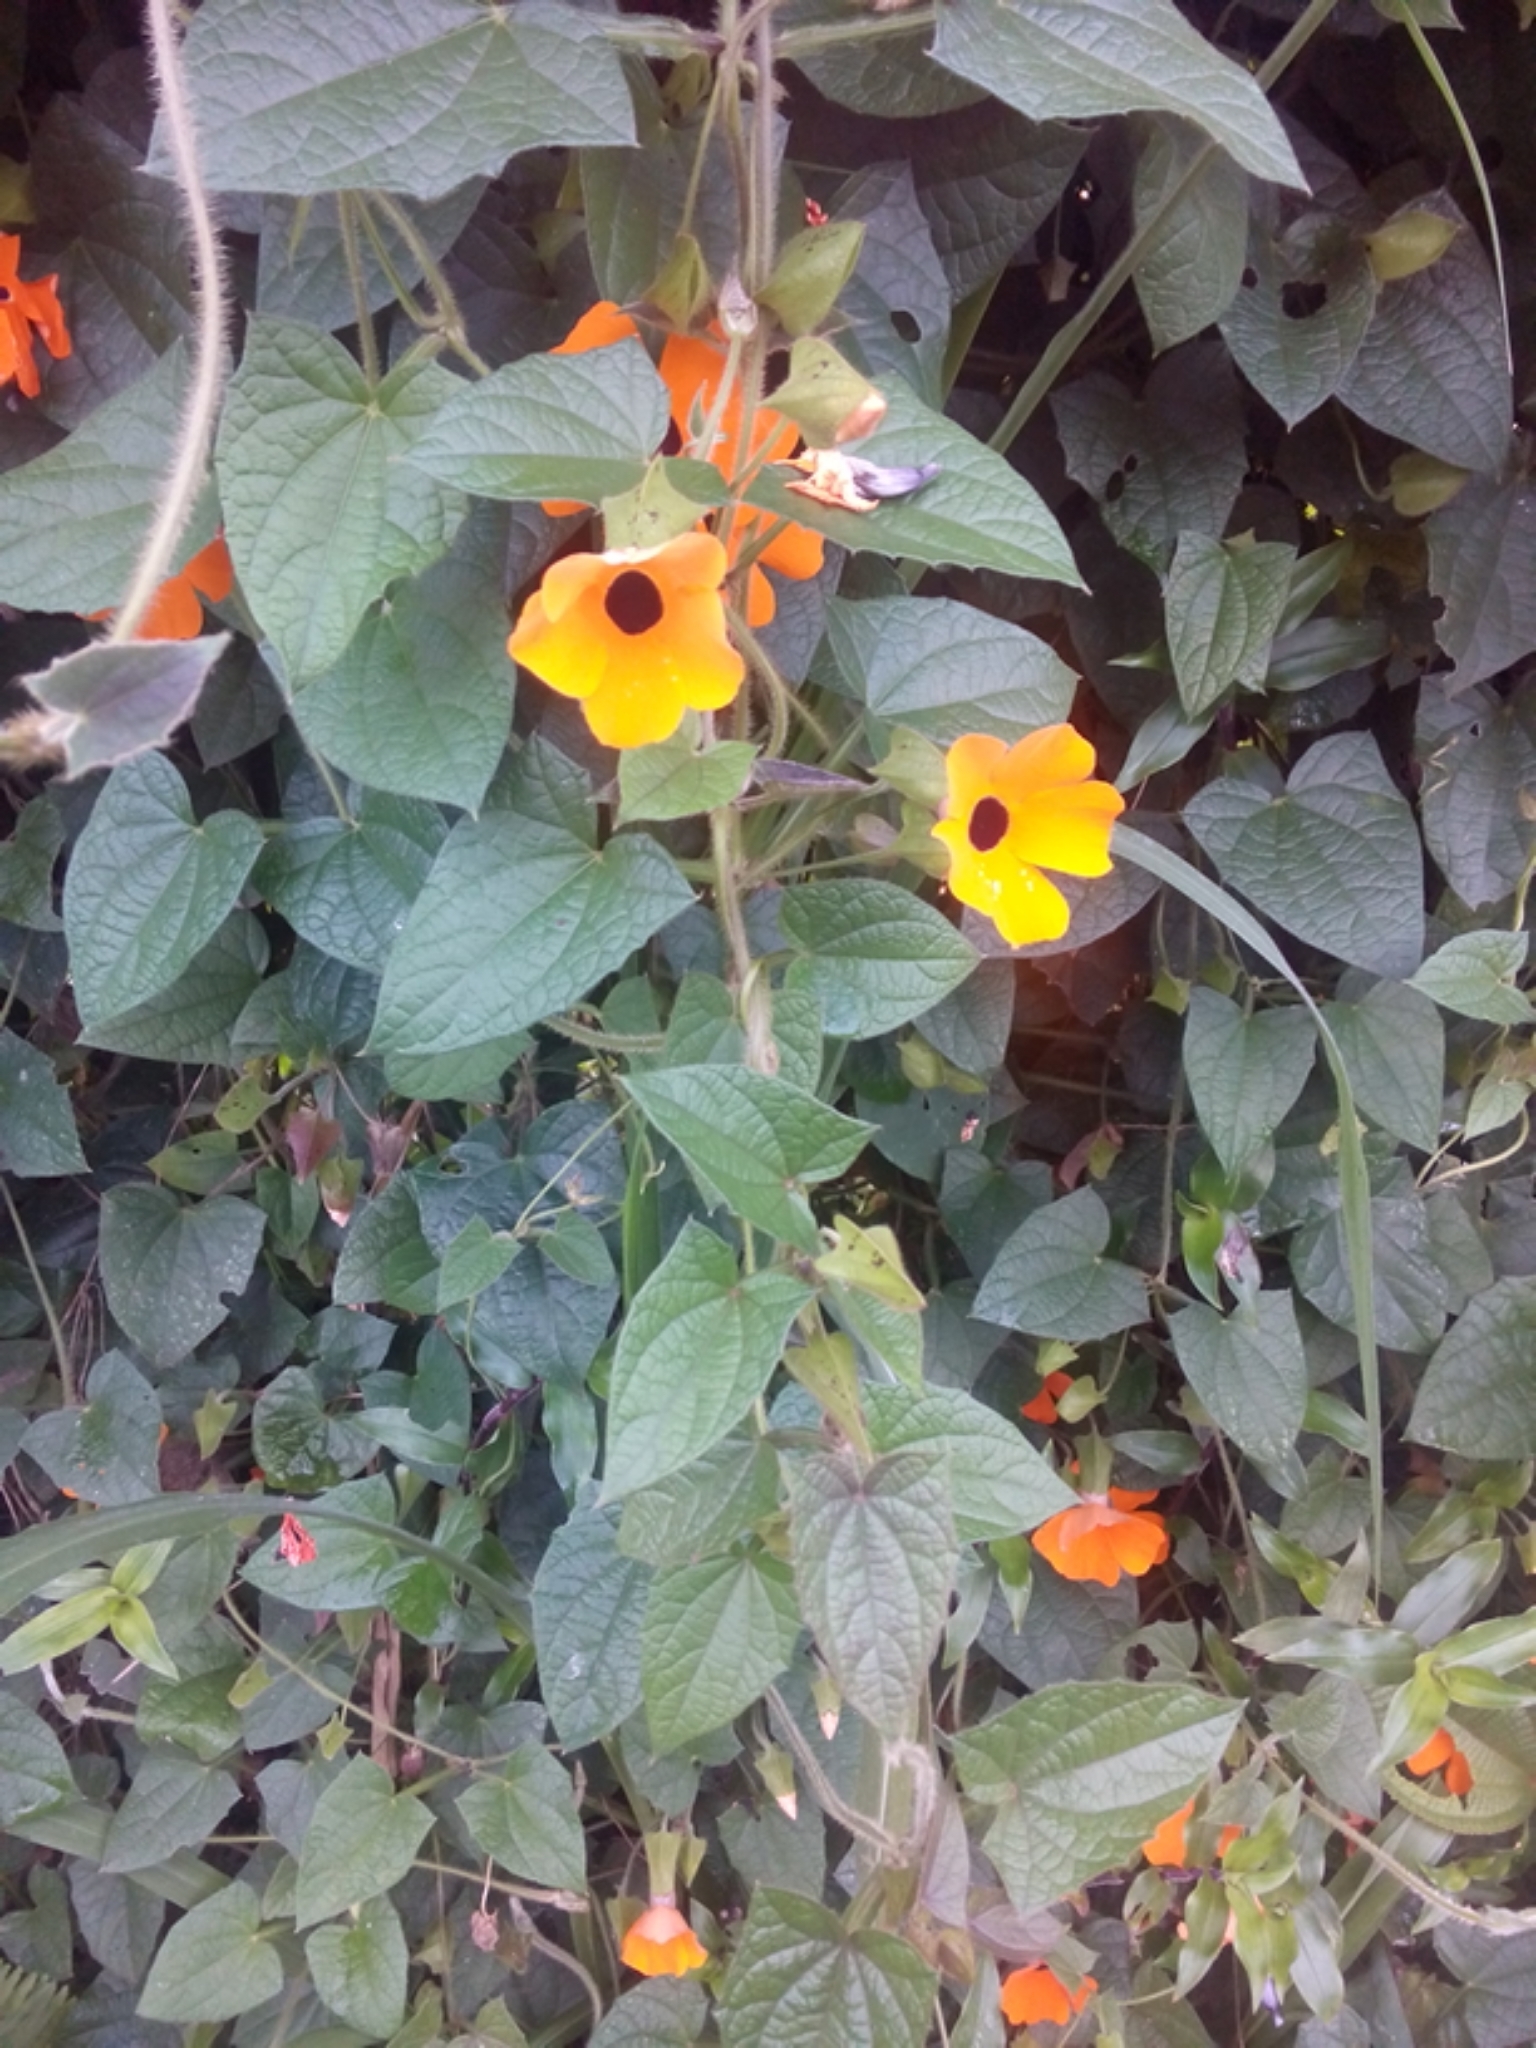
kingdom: Plantae
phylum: Tracheophyta
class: Magnoliopsida
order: Lamiales
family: Acanthaceae
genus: Thunbergia
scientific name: Thunbergia alata
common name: Blackeyed susan vine
